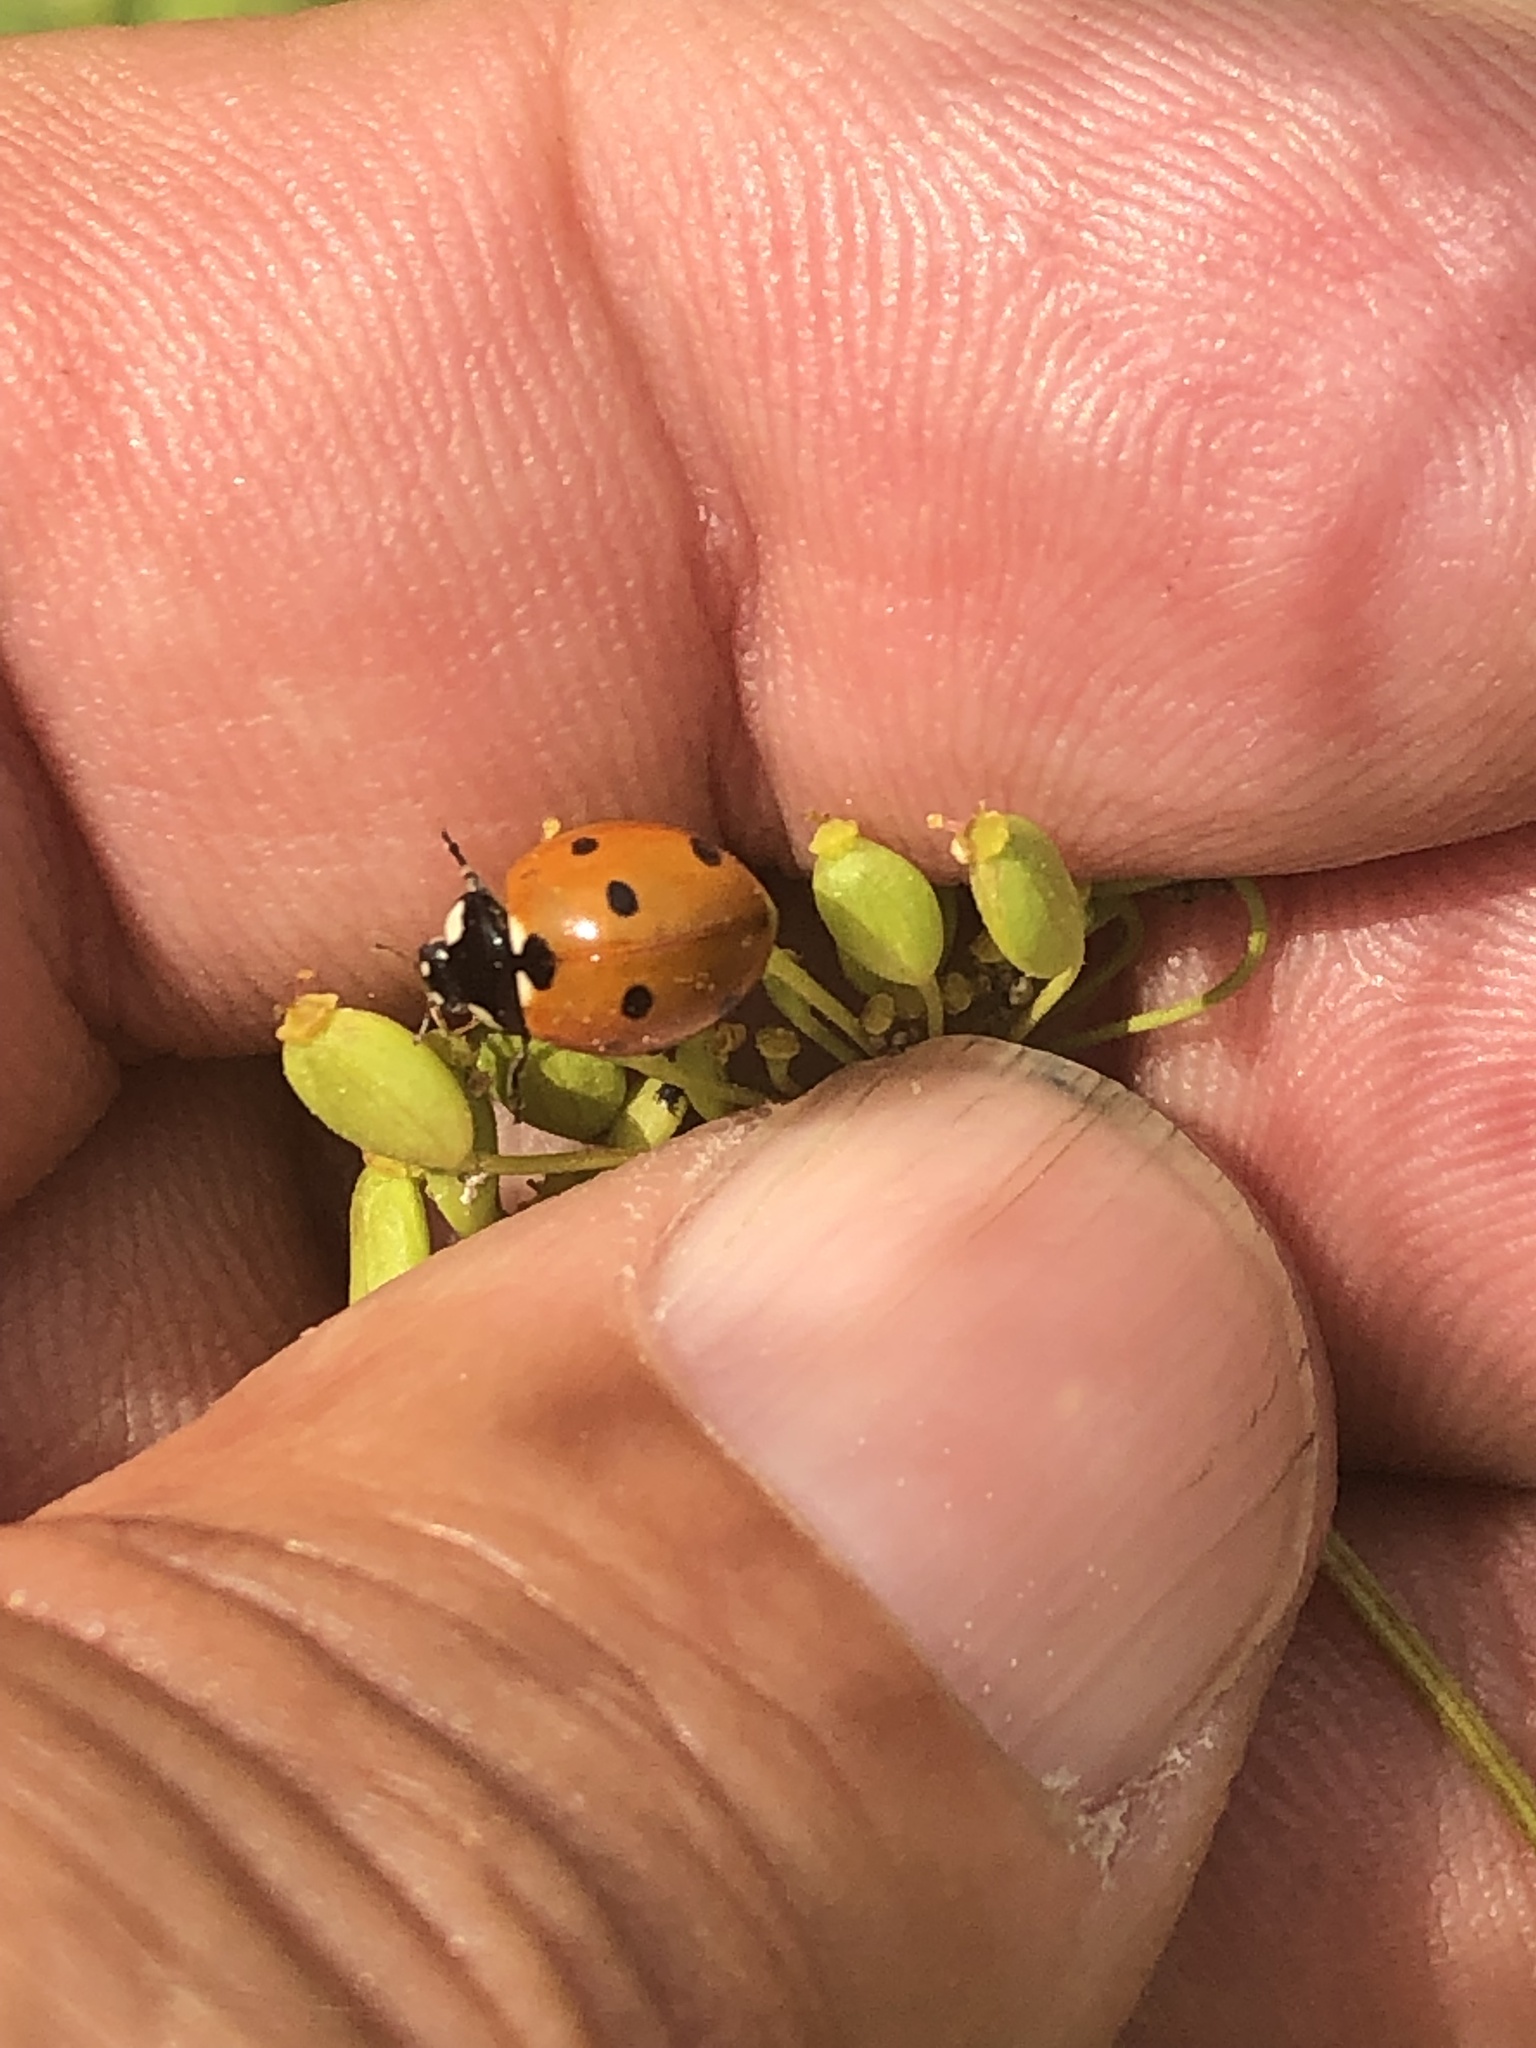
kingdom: Animalia
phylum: Arthropoda
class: Insecta
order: Coleoptera
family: Coccinellidae
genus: Coccinella
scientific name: Coccinella septempunctata
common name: Sevenspotted lady beetle
